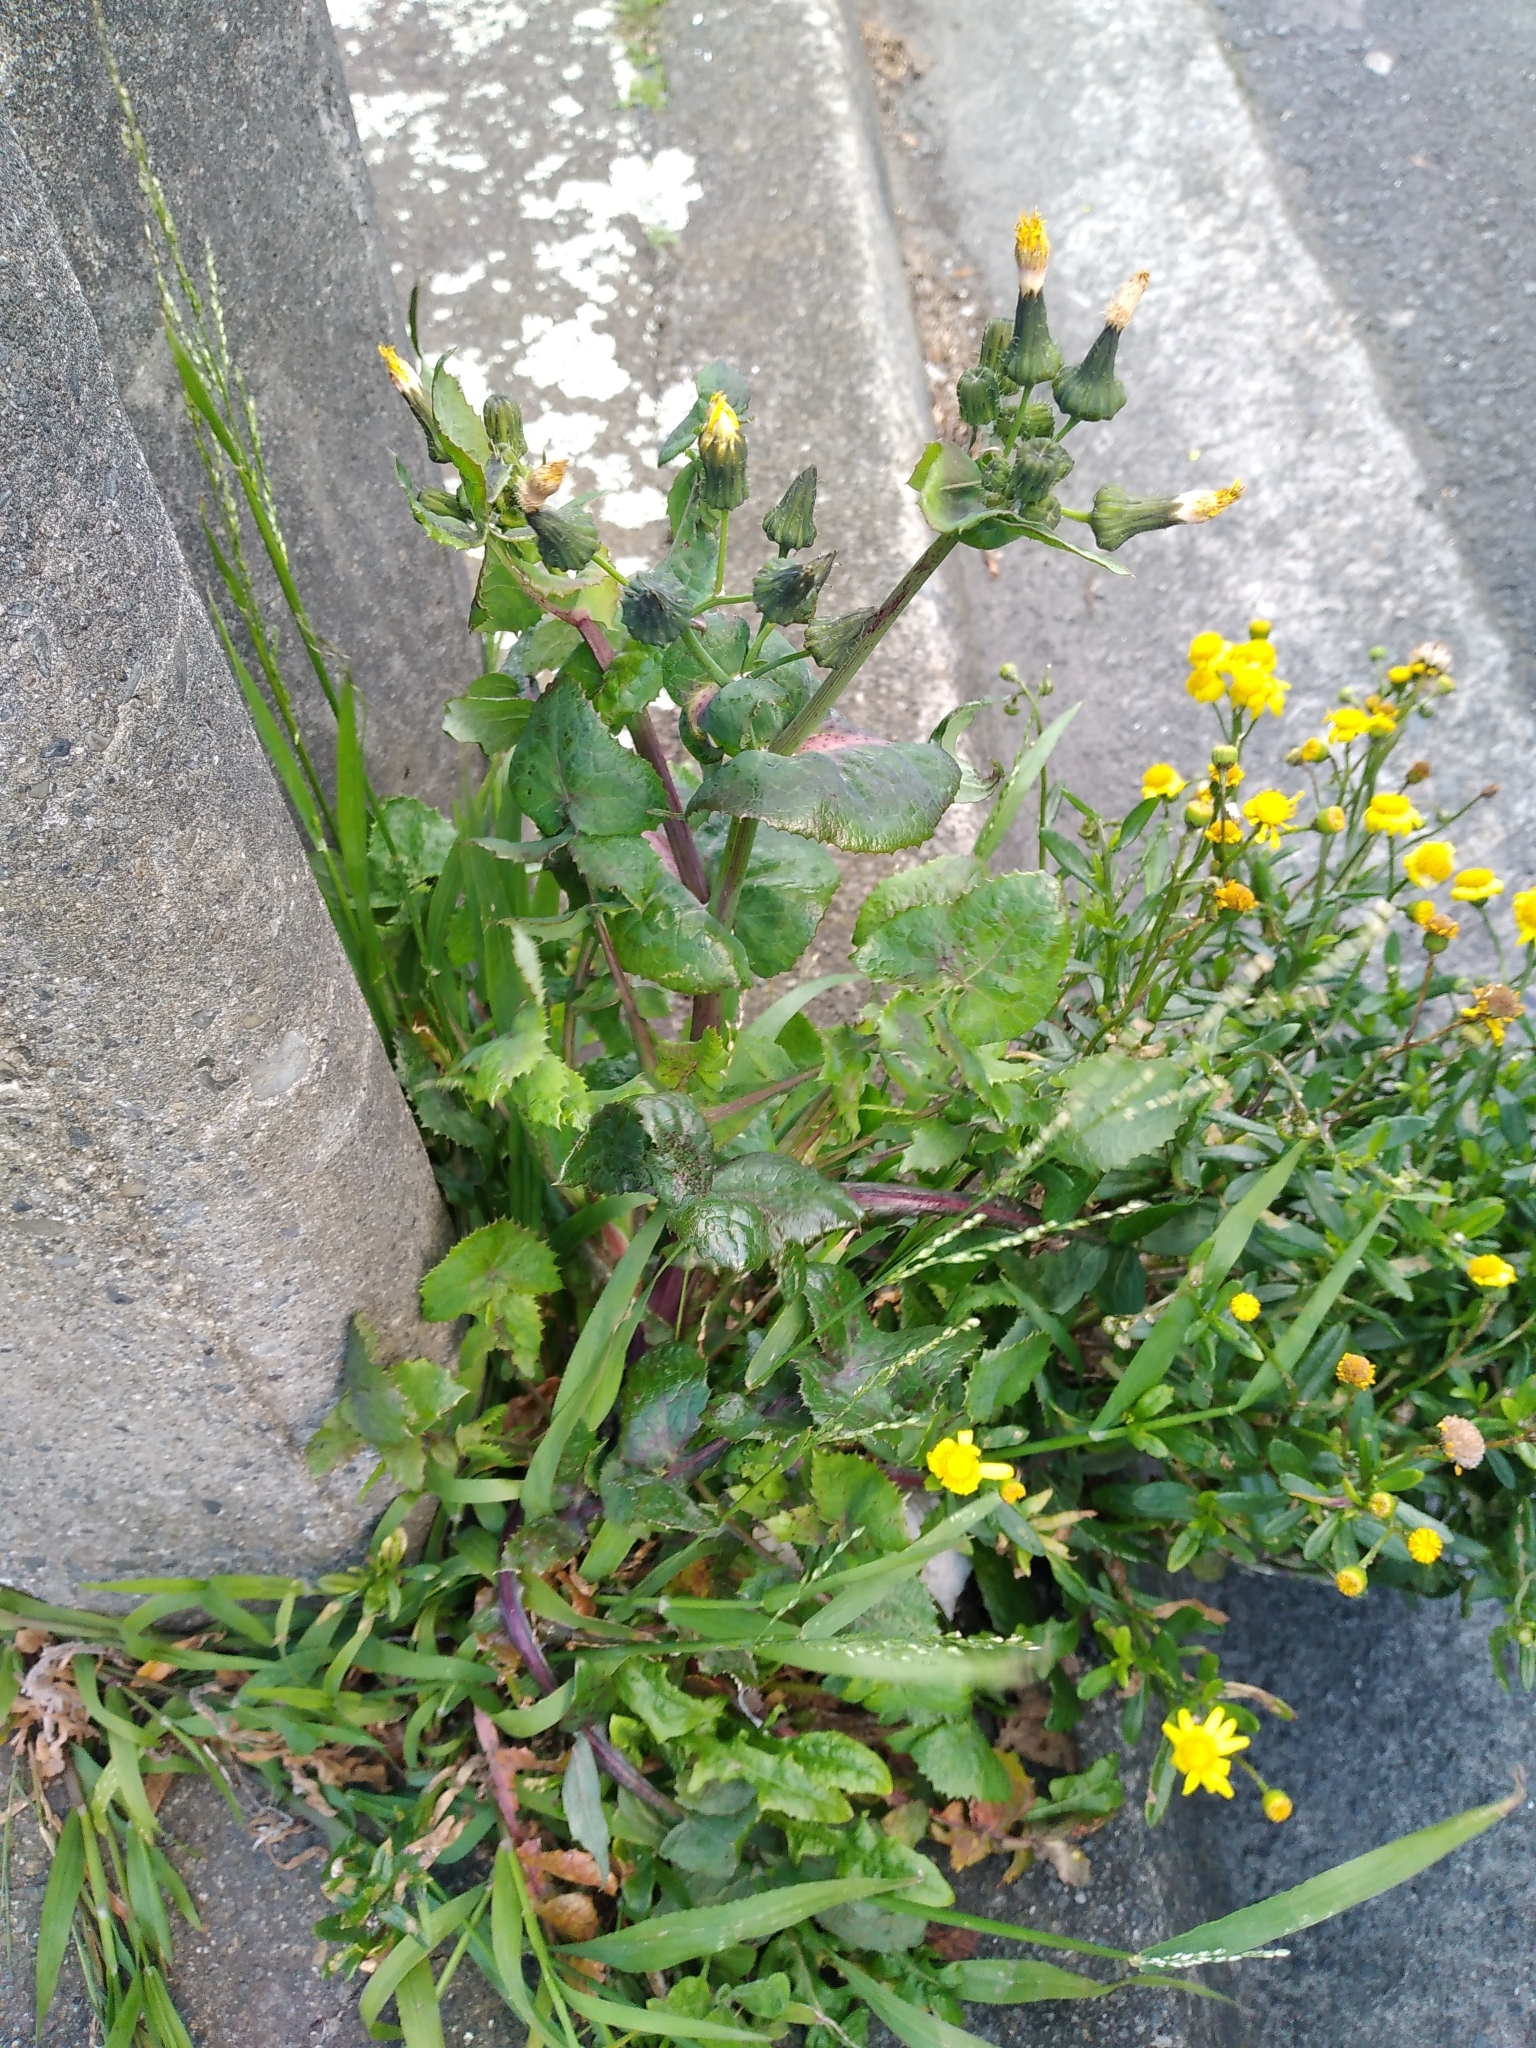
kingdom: Plantae
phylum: Tracheophyta
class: Magnoliopsida
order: Asterales
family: Asteraceae
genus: Sonchus
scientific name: Sonchus oleraceus
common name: Common sowthistle
